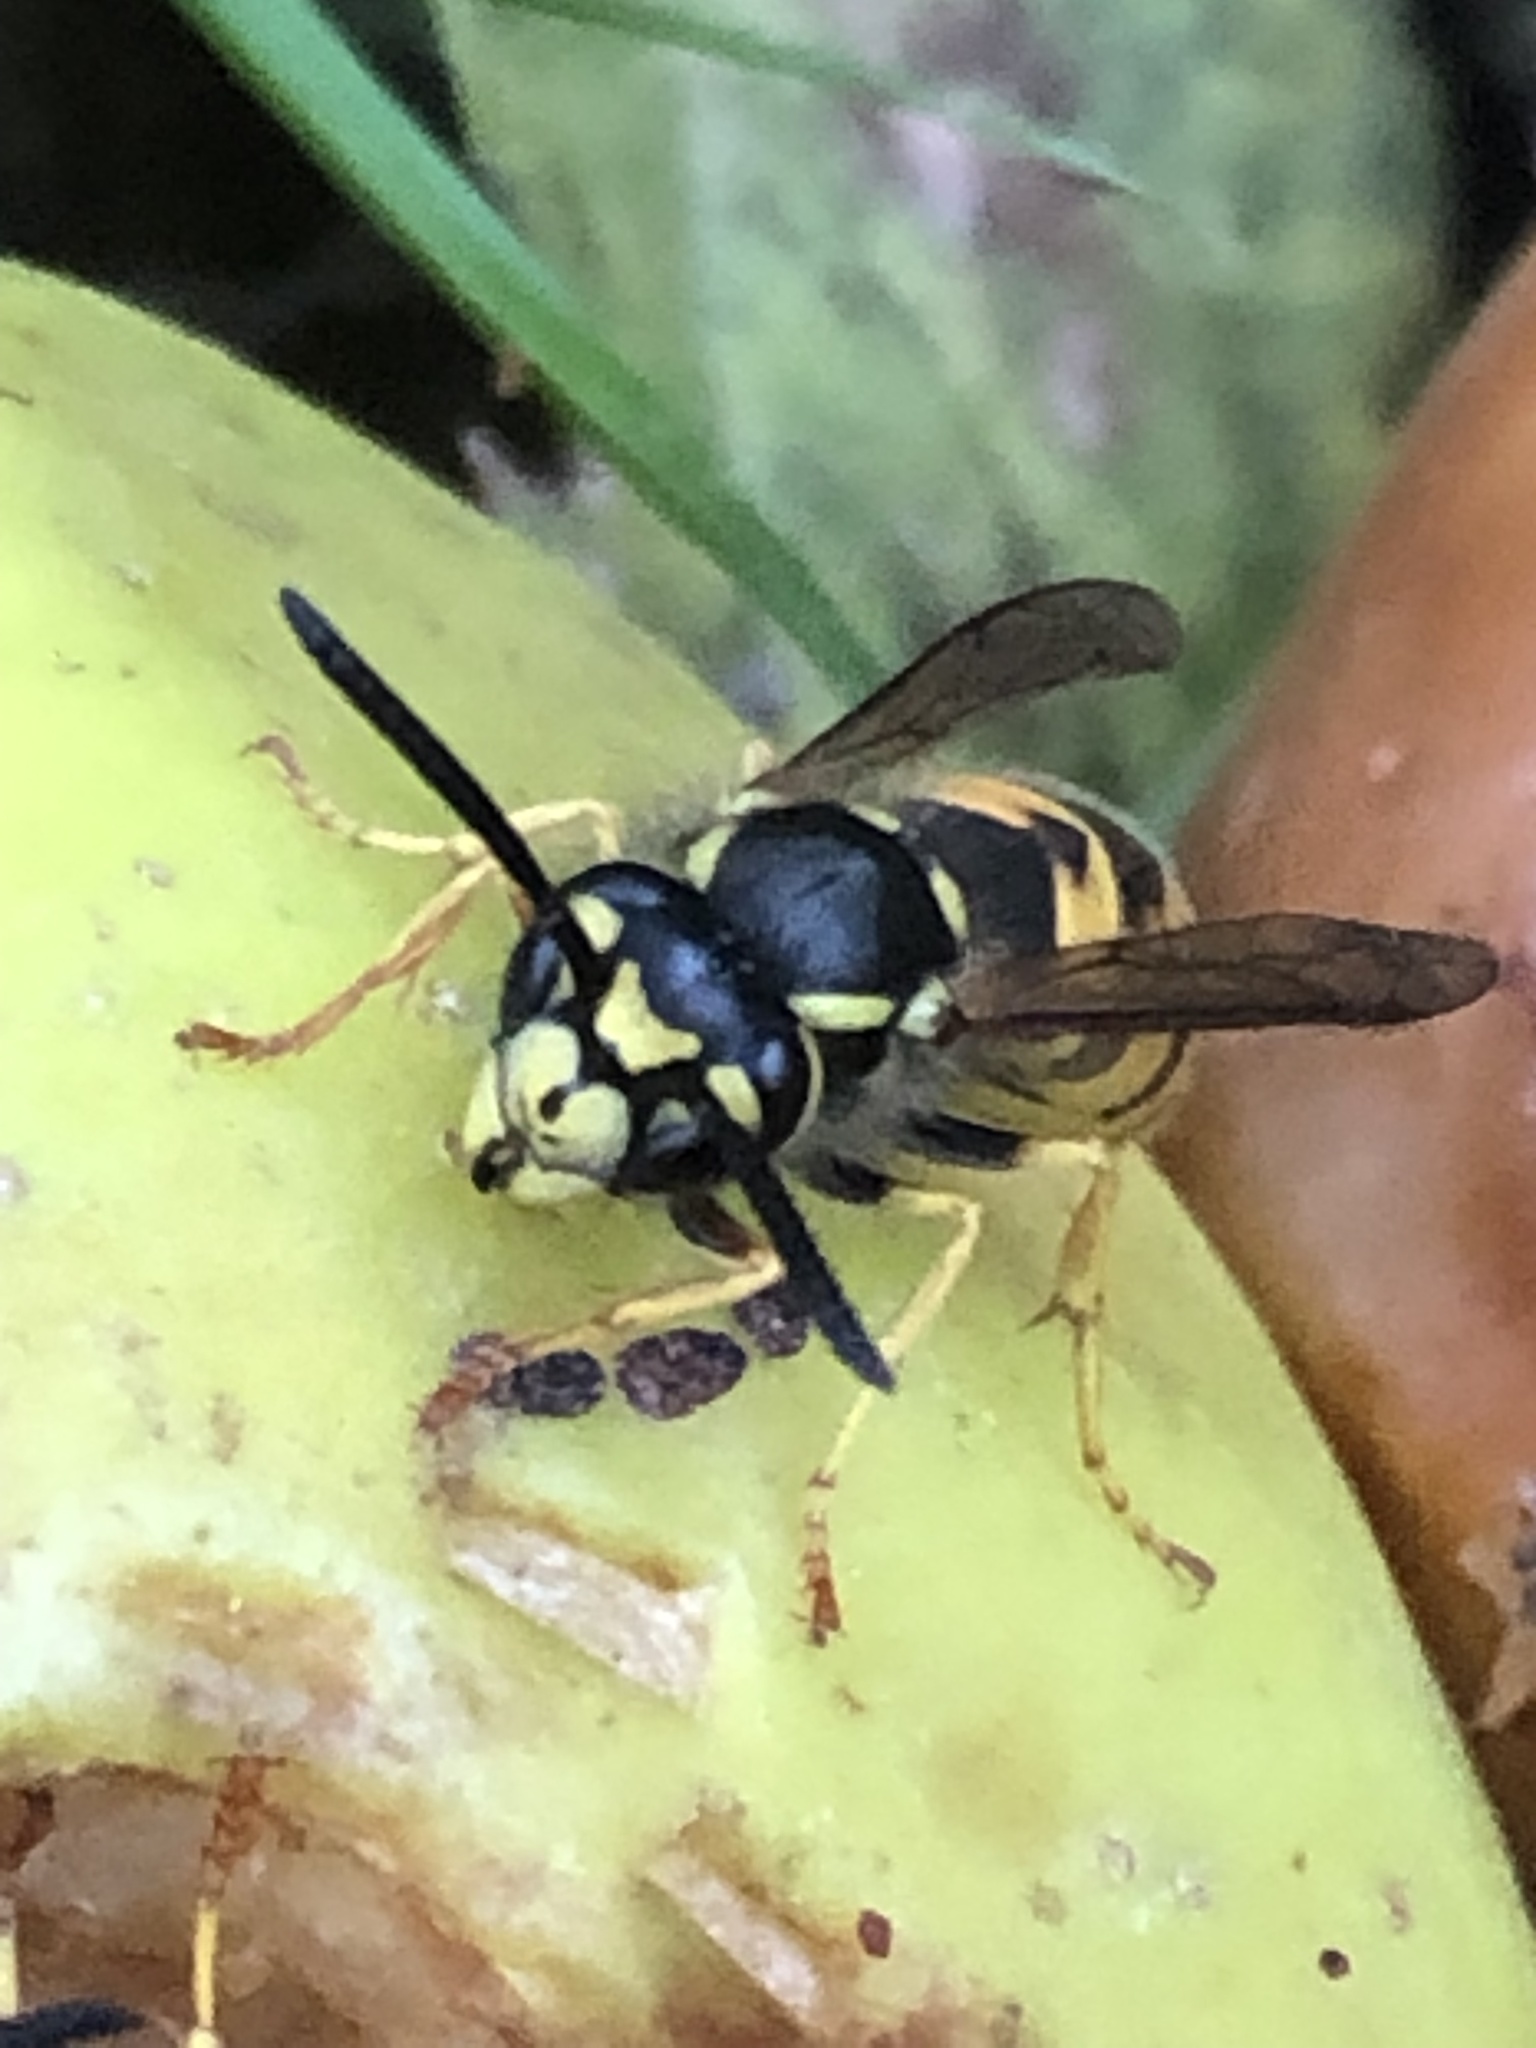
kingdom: Animalia
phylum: Arthropoda
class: Insecta
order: Hymenoptera
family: Vespidae
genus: Vespula
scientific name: Vespula germanica
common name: German wasp
